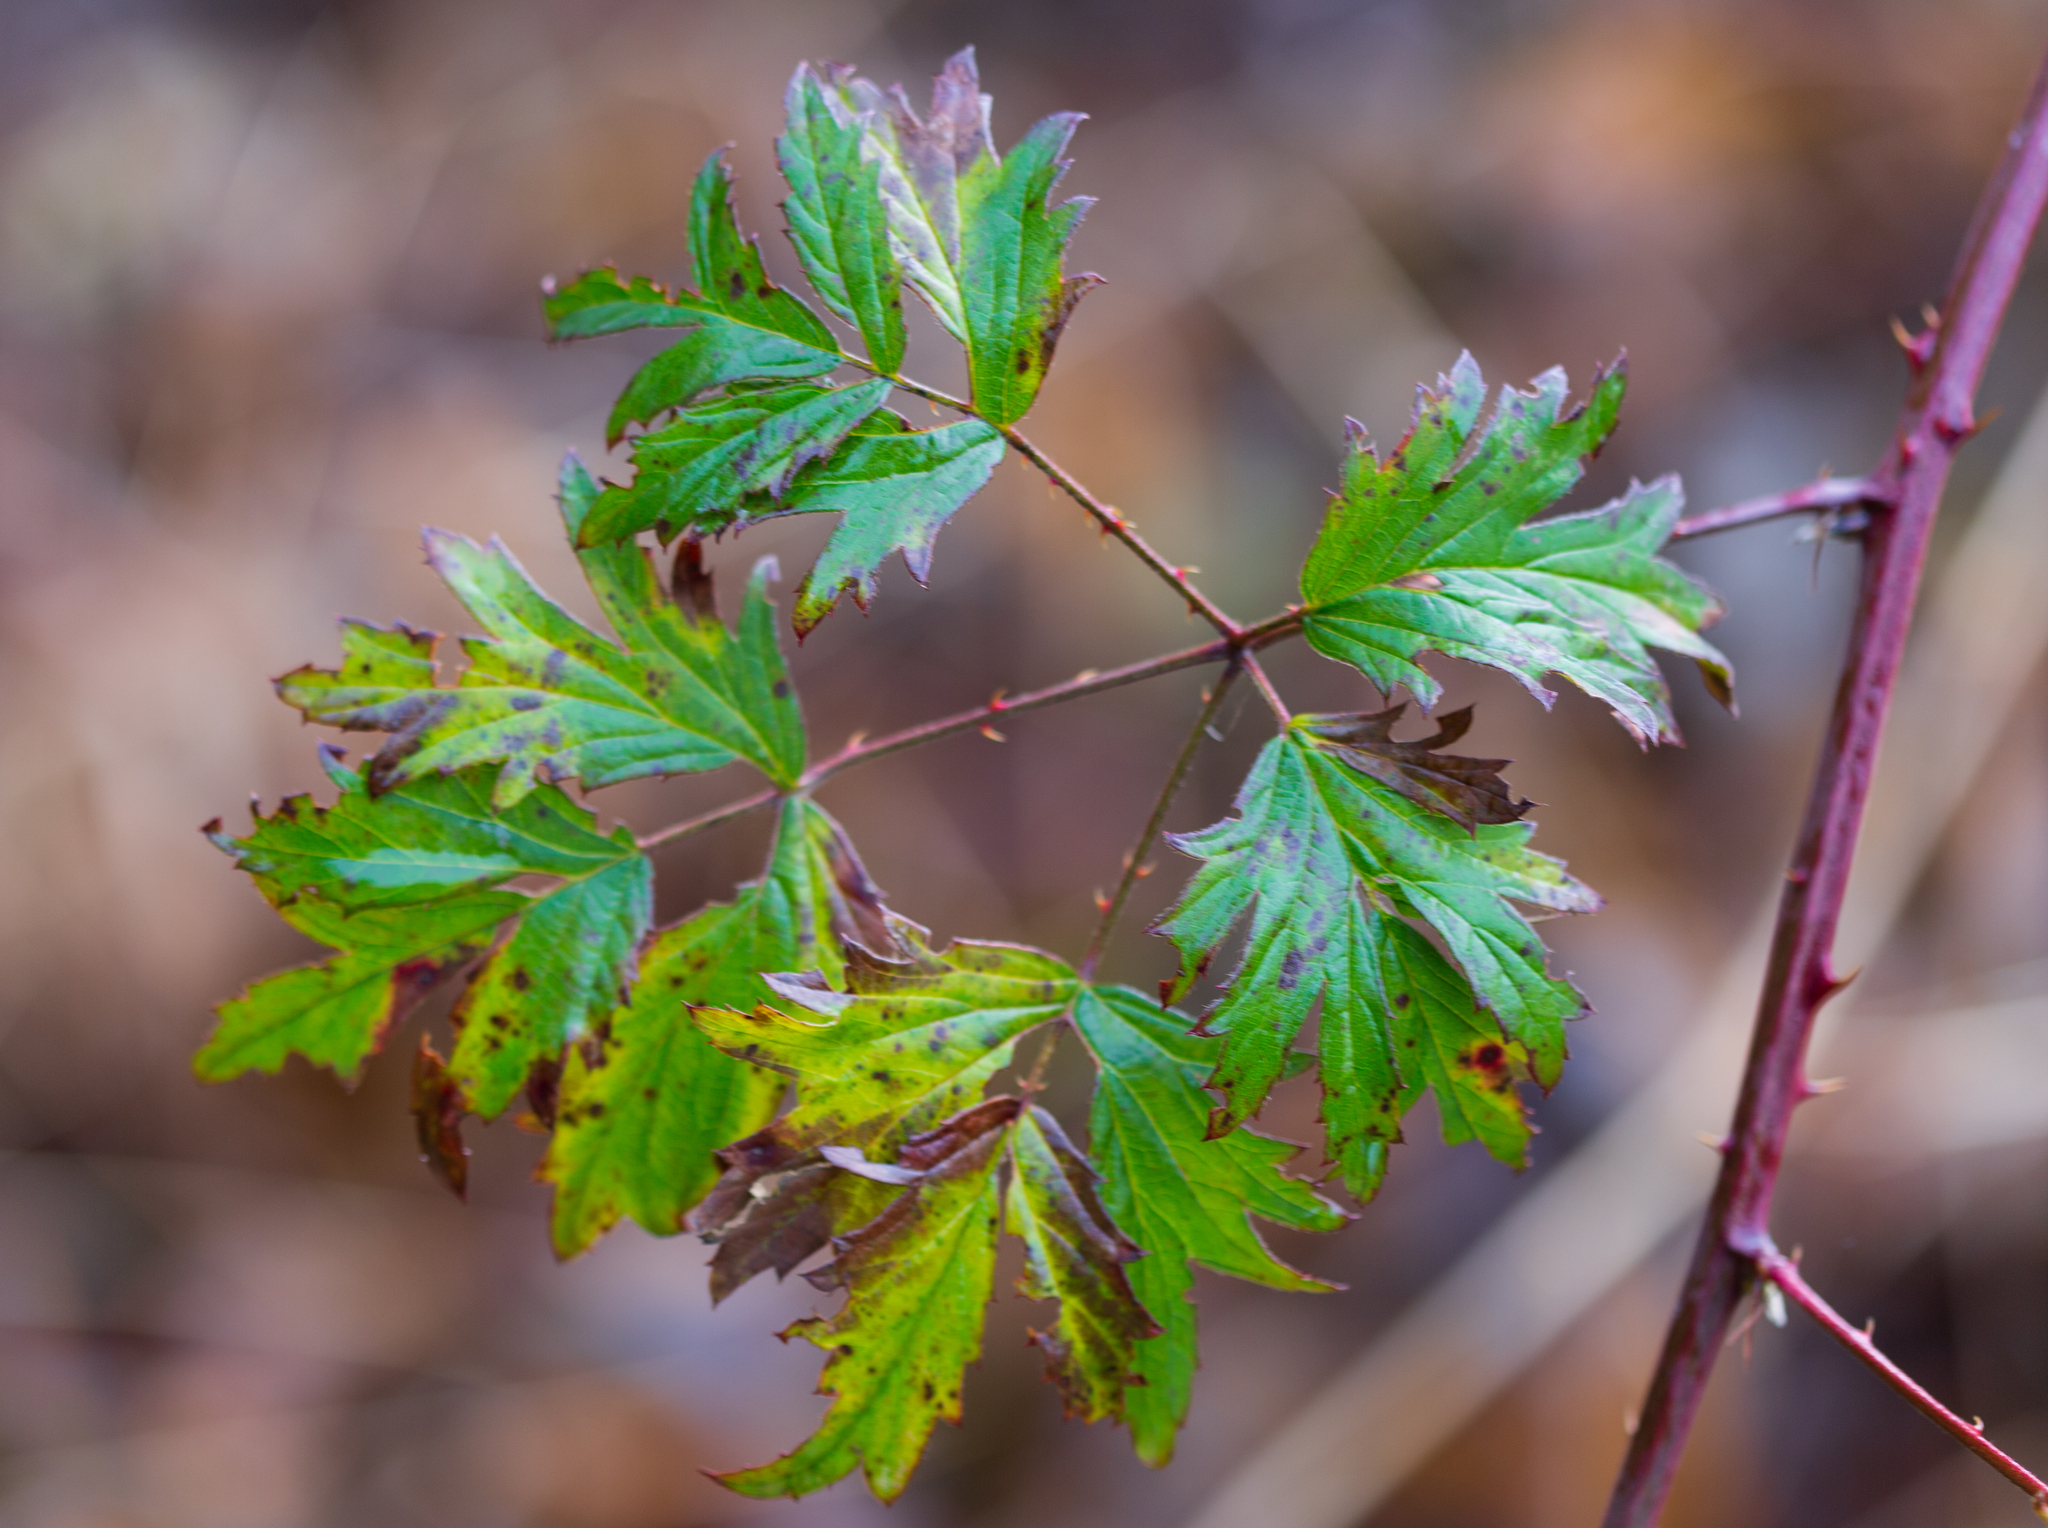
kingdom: Plantae
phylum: Tracheophyta
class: Magnoliopsida
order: Rosales
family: Rosaceae
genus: Rubus
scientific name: Rubus laciniatus
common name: Evergreen blackberry
